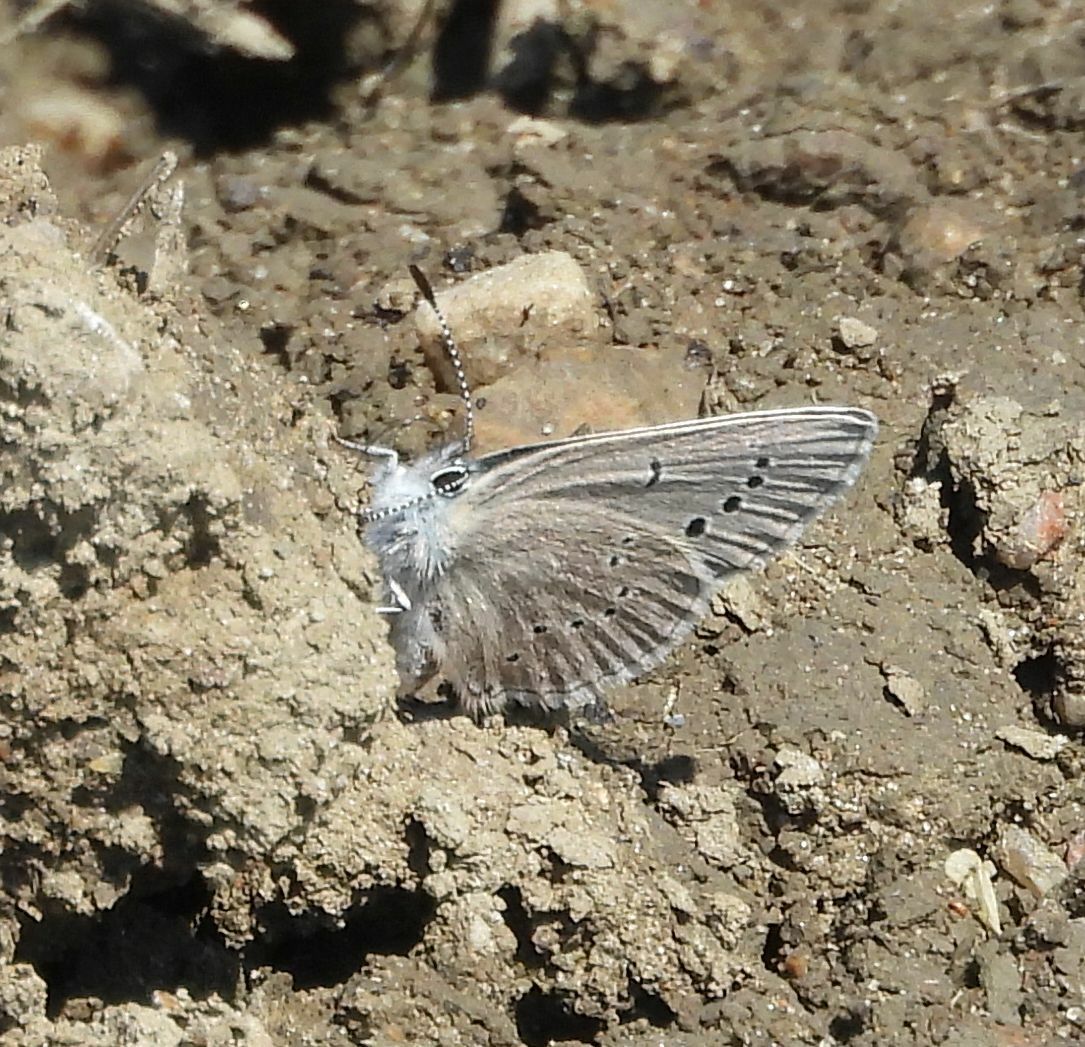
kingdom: Animalia
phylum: Arthropoda
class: Insecta
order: Lepidoptera
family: Lycaenidae
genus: Glaucopsyche
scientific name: Glaucopsyche lygdamus
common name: Silvery blue
